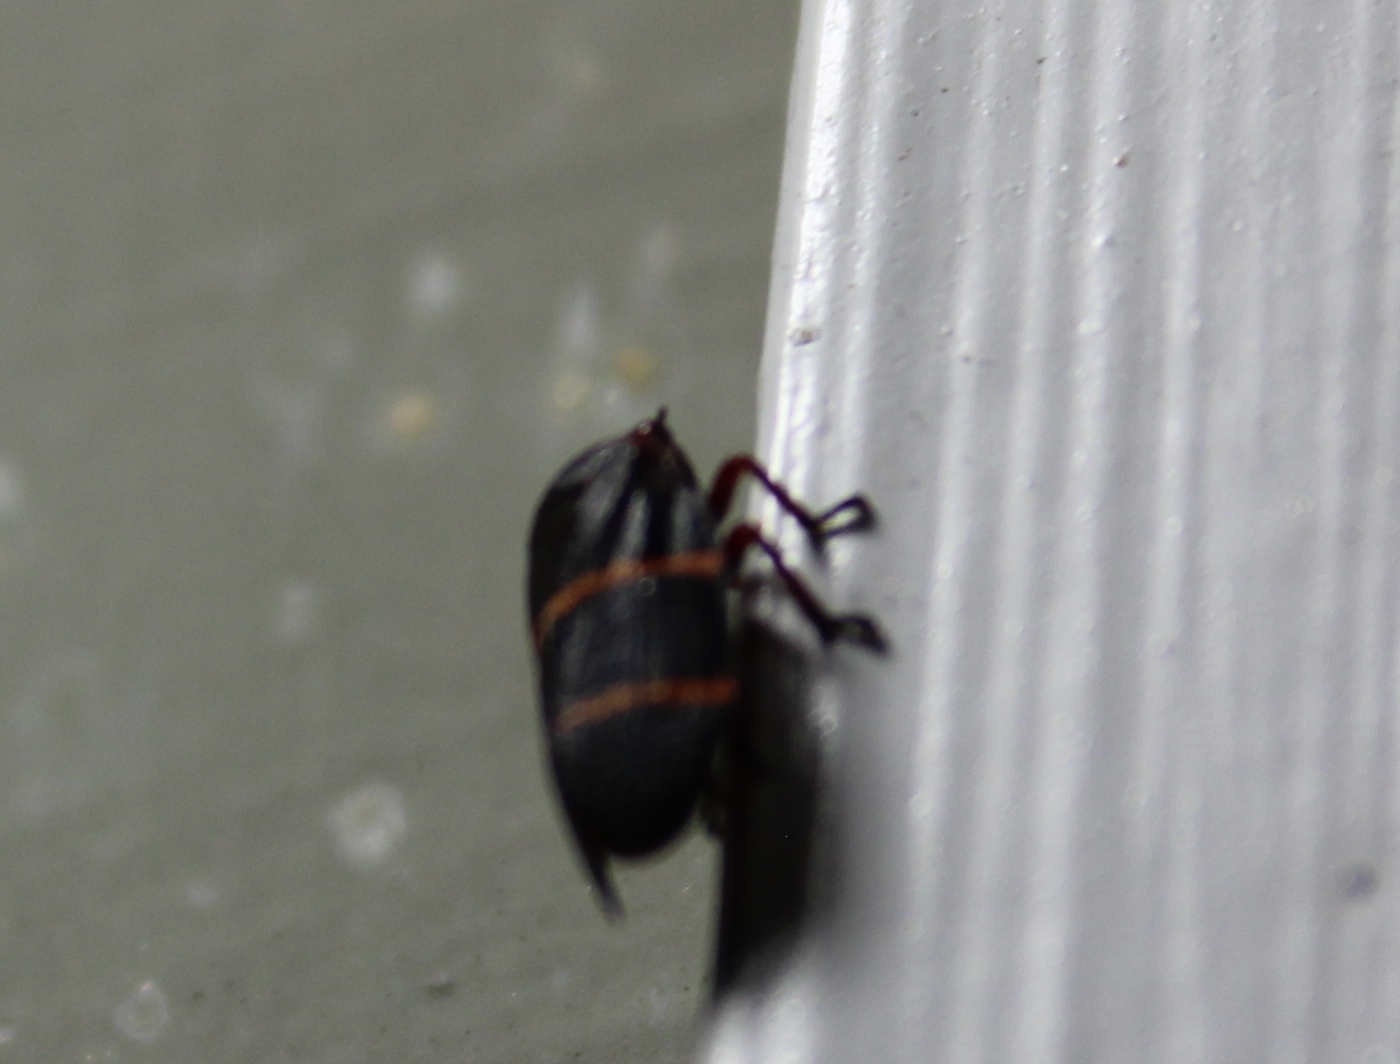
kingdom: Animalia
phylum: Arthropoda
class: Insecta
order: Hemiptera
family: Cercopidae
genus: Prosapia
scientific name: Prosapia bicincta
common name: Twolined spittlebug
